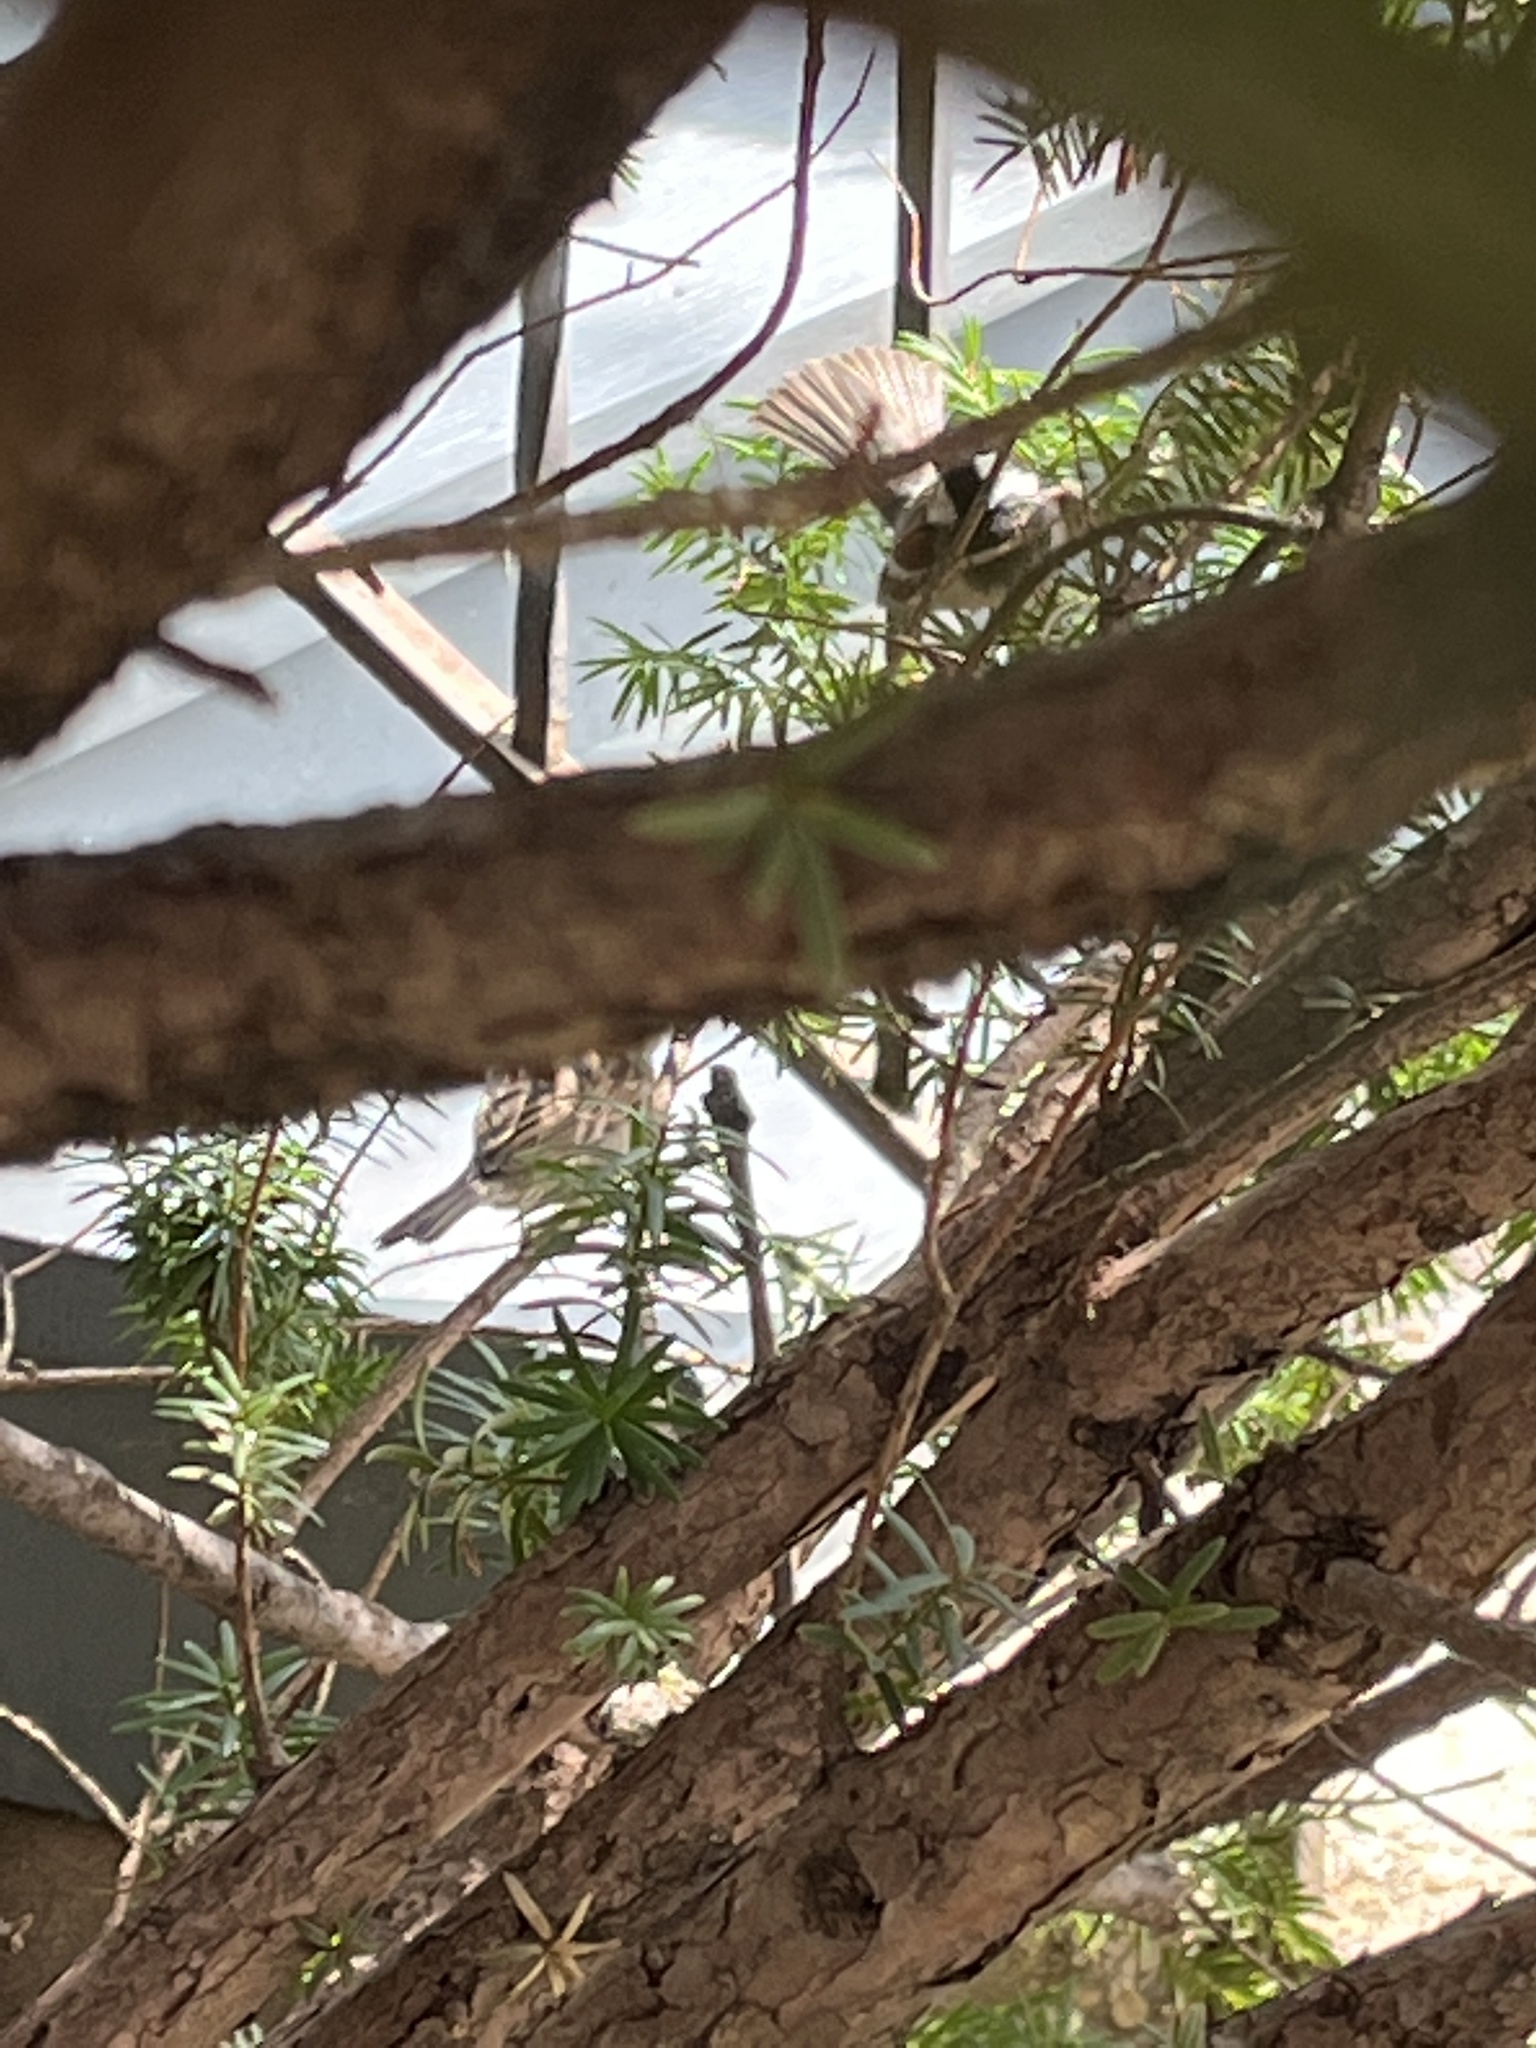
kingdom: Animalia
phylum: Chordata
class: Aves
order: Passeriformes
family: Passeridae
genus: Passer
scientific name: Passer domesticus
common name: House sparrow
